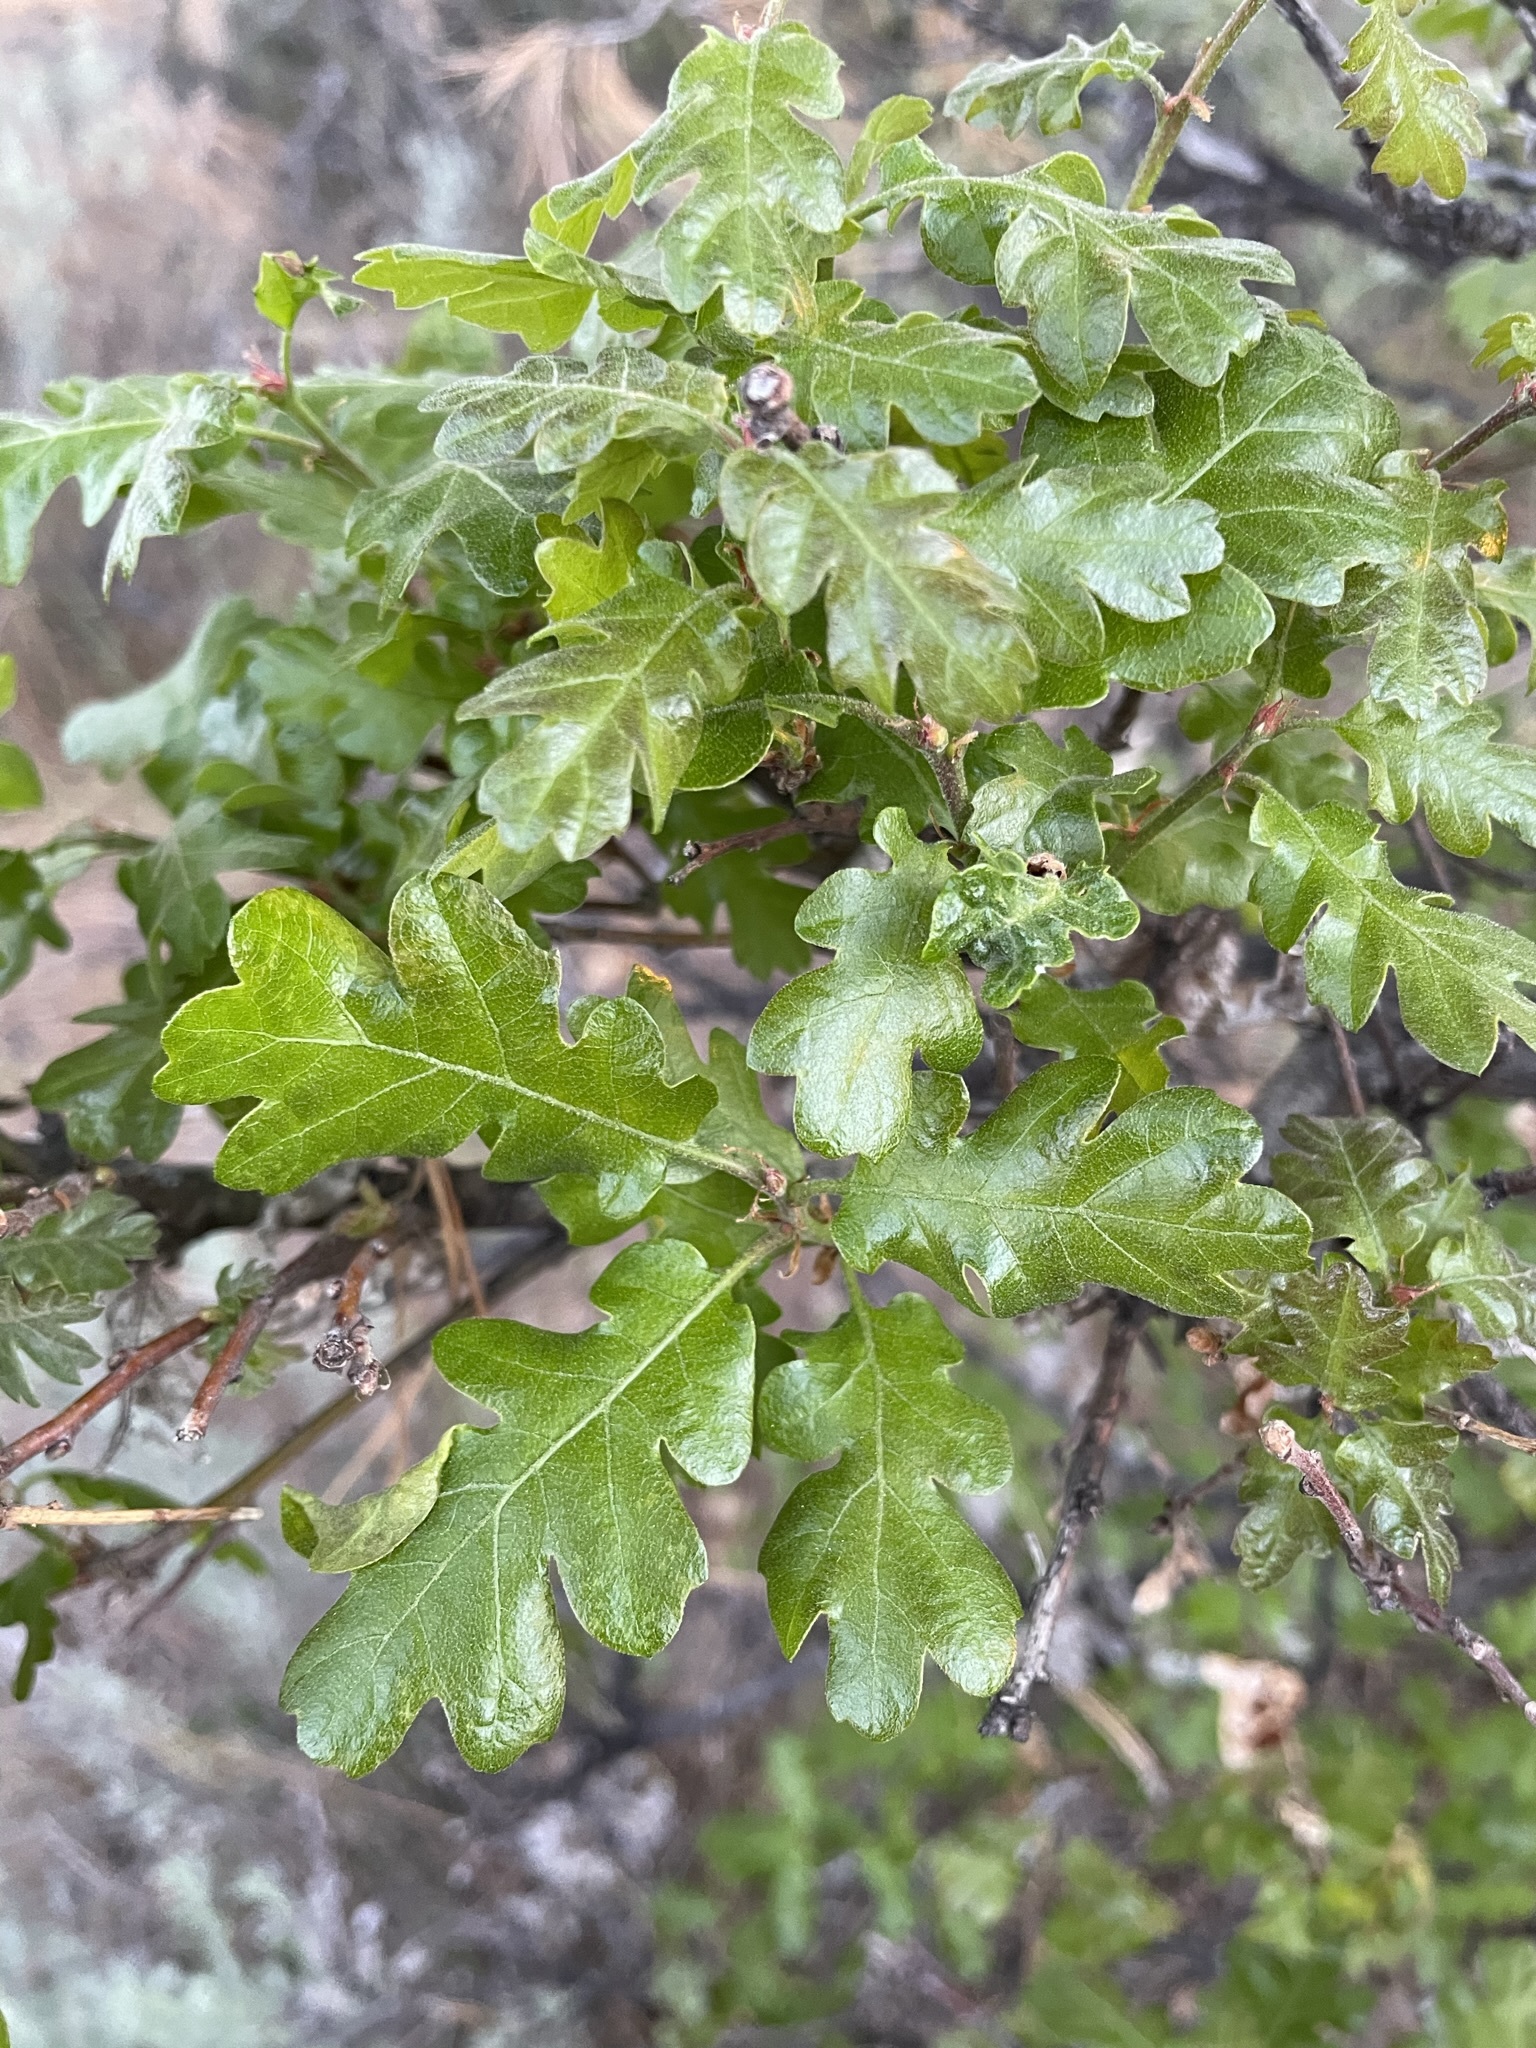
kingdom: Plantae
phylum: Tracheophyta
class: Magnoliopsida
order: Fagales
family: Fagaceae
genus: Quercus
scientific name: Quercus garryana
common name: Garry oak
